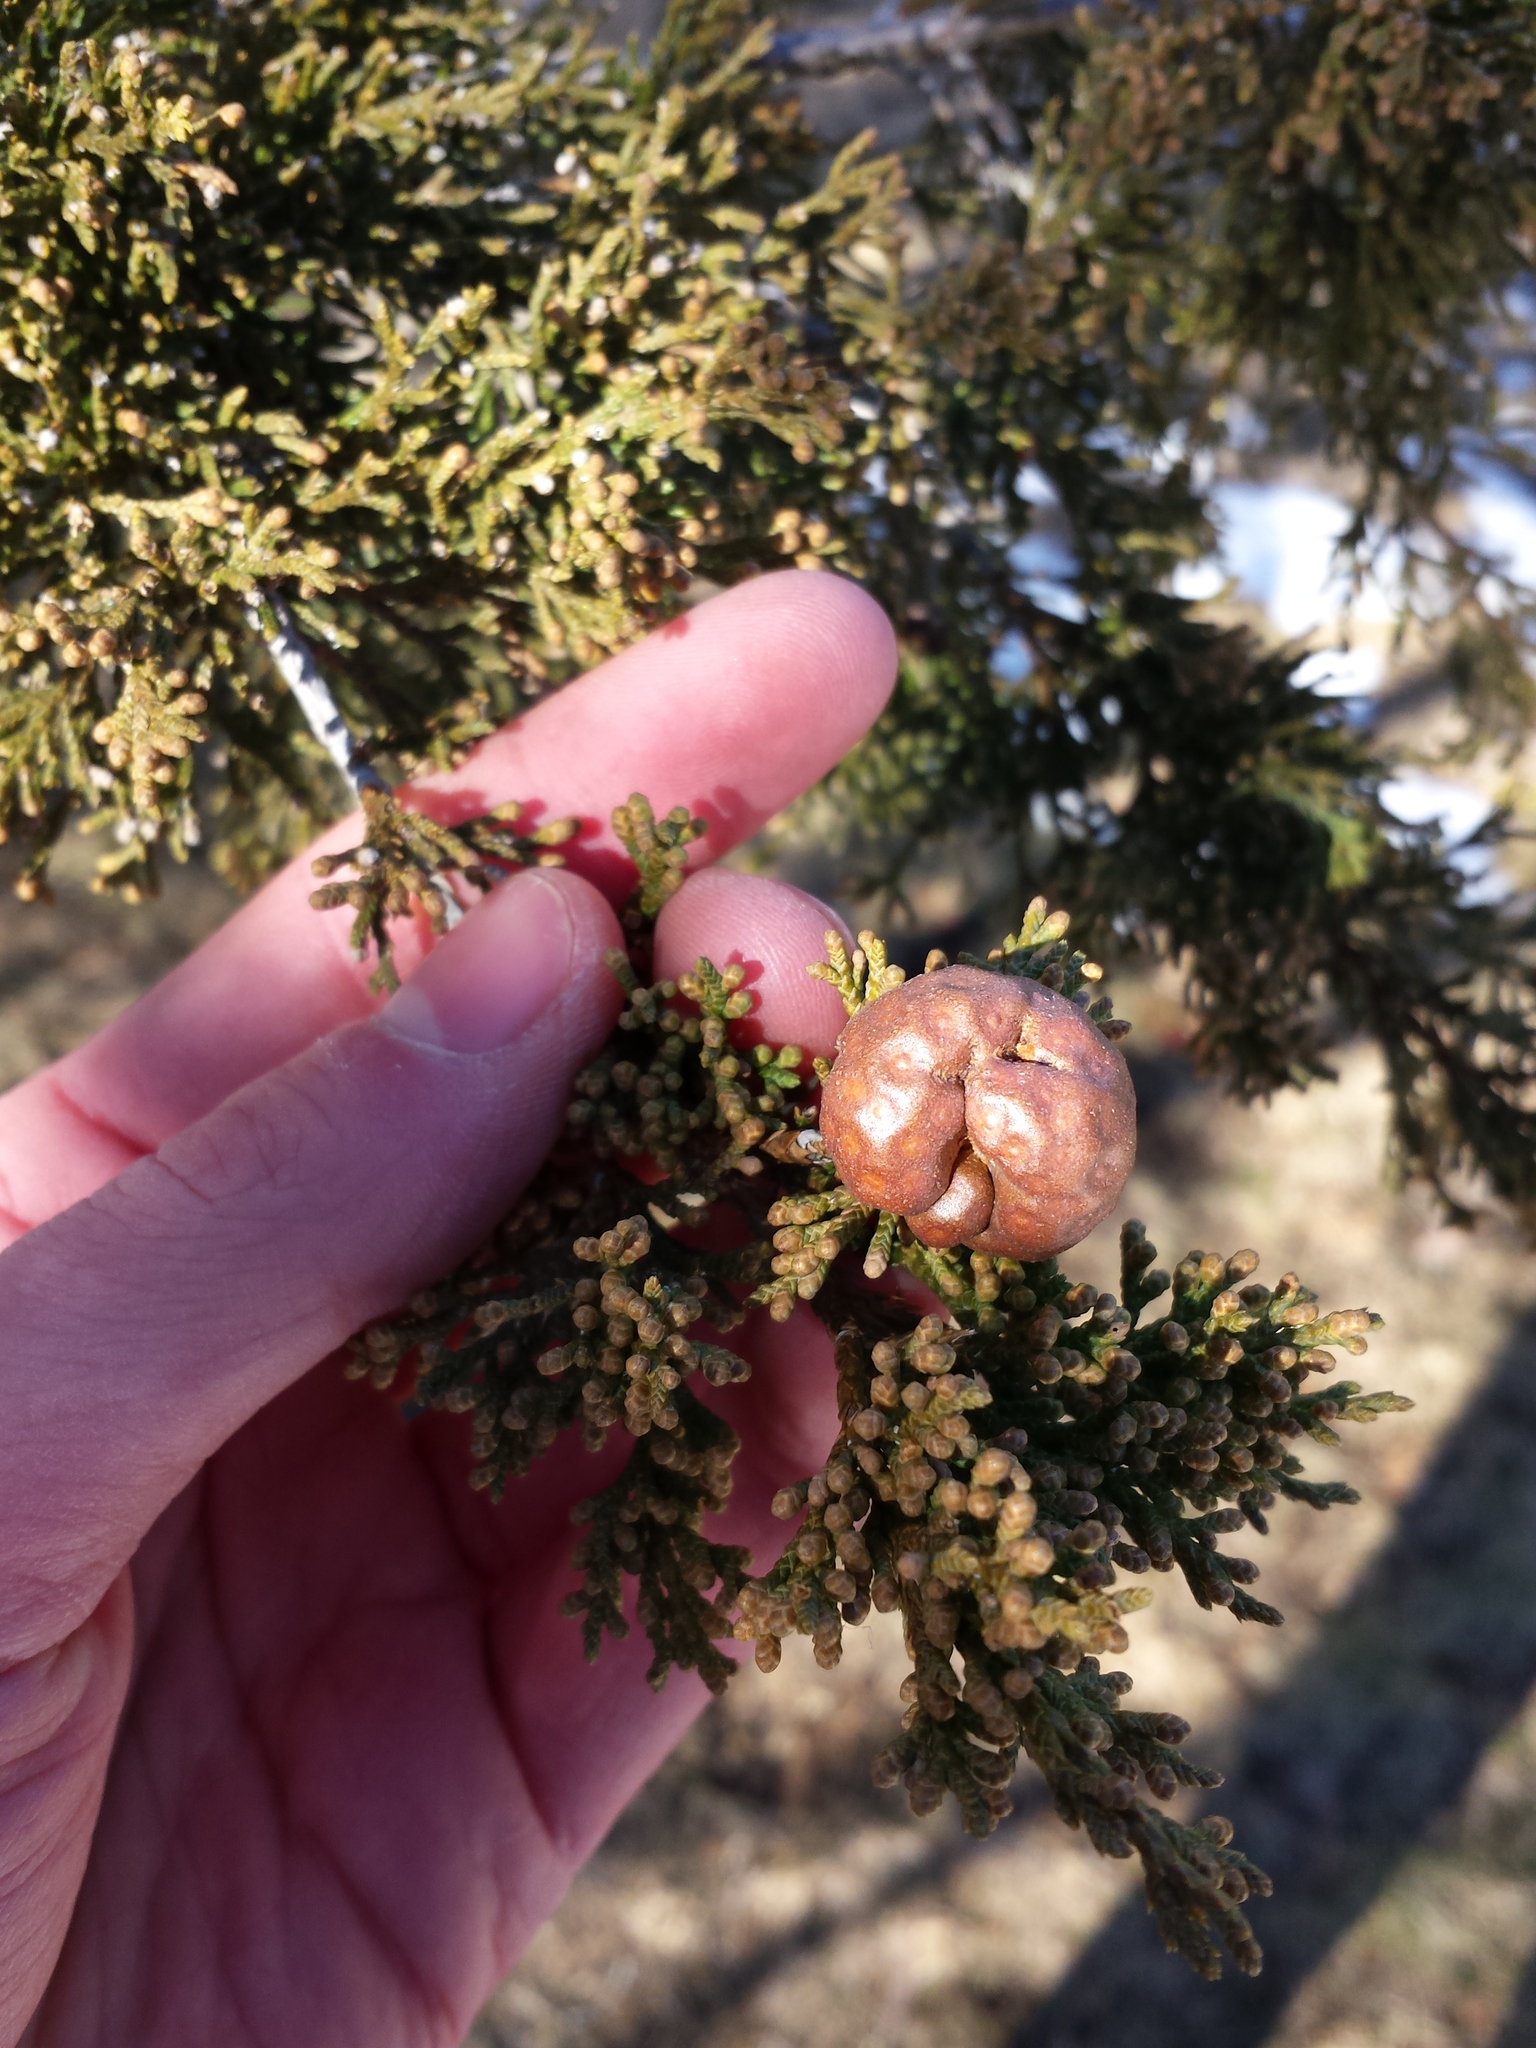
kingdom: Fungi
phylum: Basidiomycota
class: Pucciniomycetes
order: Pucciniales
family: Gymnosporangiaceae
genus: Gymnosporangium
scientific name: Gymnosporangium juniperi-virginianae
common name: Juniper-apple rust
